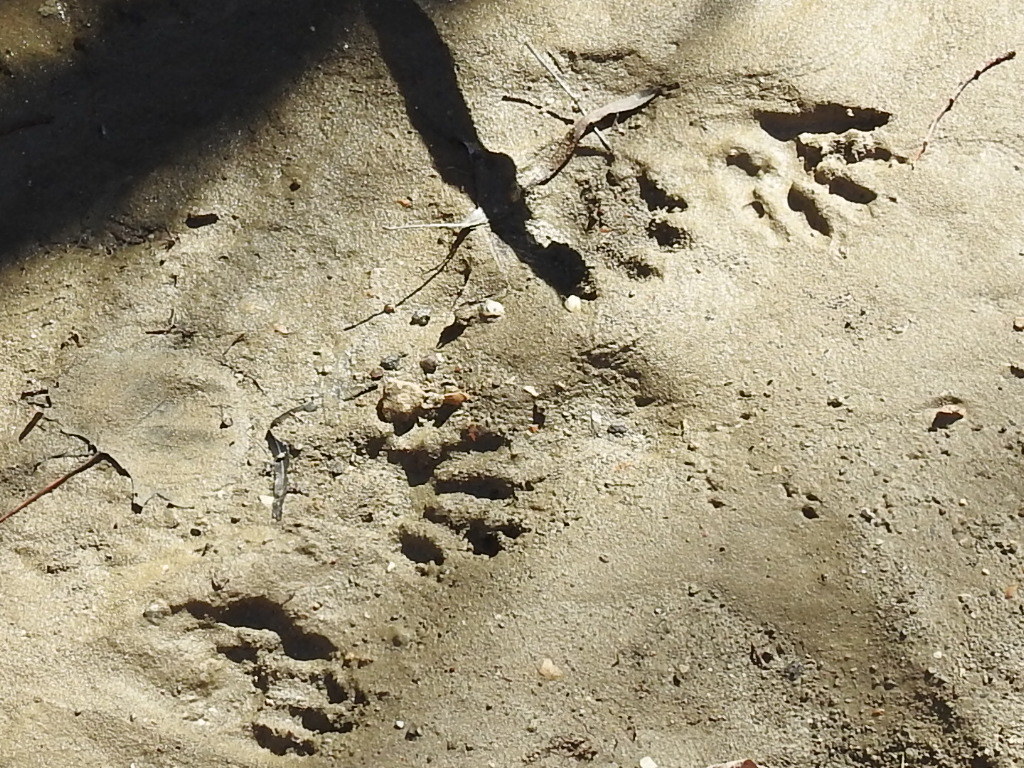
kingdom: Animalia
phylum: Chordata
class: Mammalia
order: Carnivora
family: Procyonidae
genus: Procyon
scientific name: Procyon lotor
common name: Raccoon
